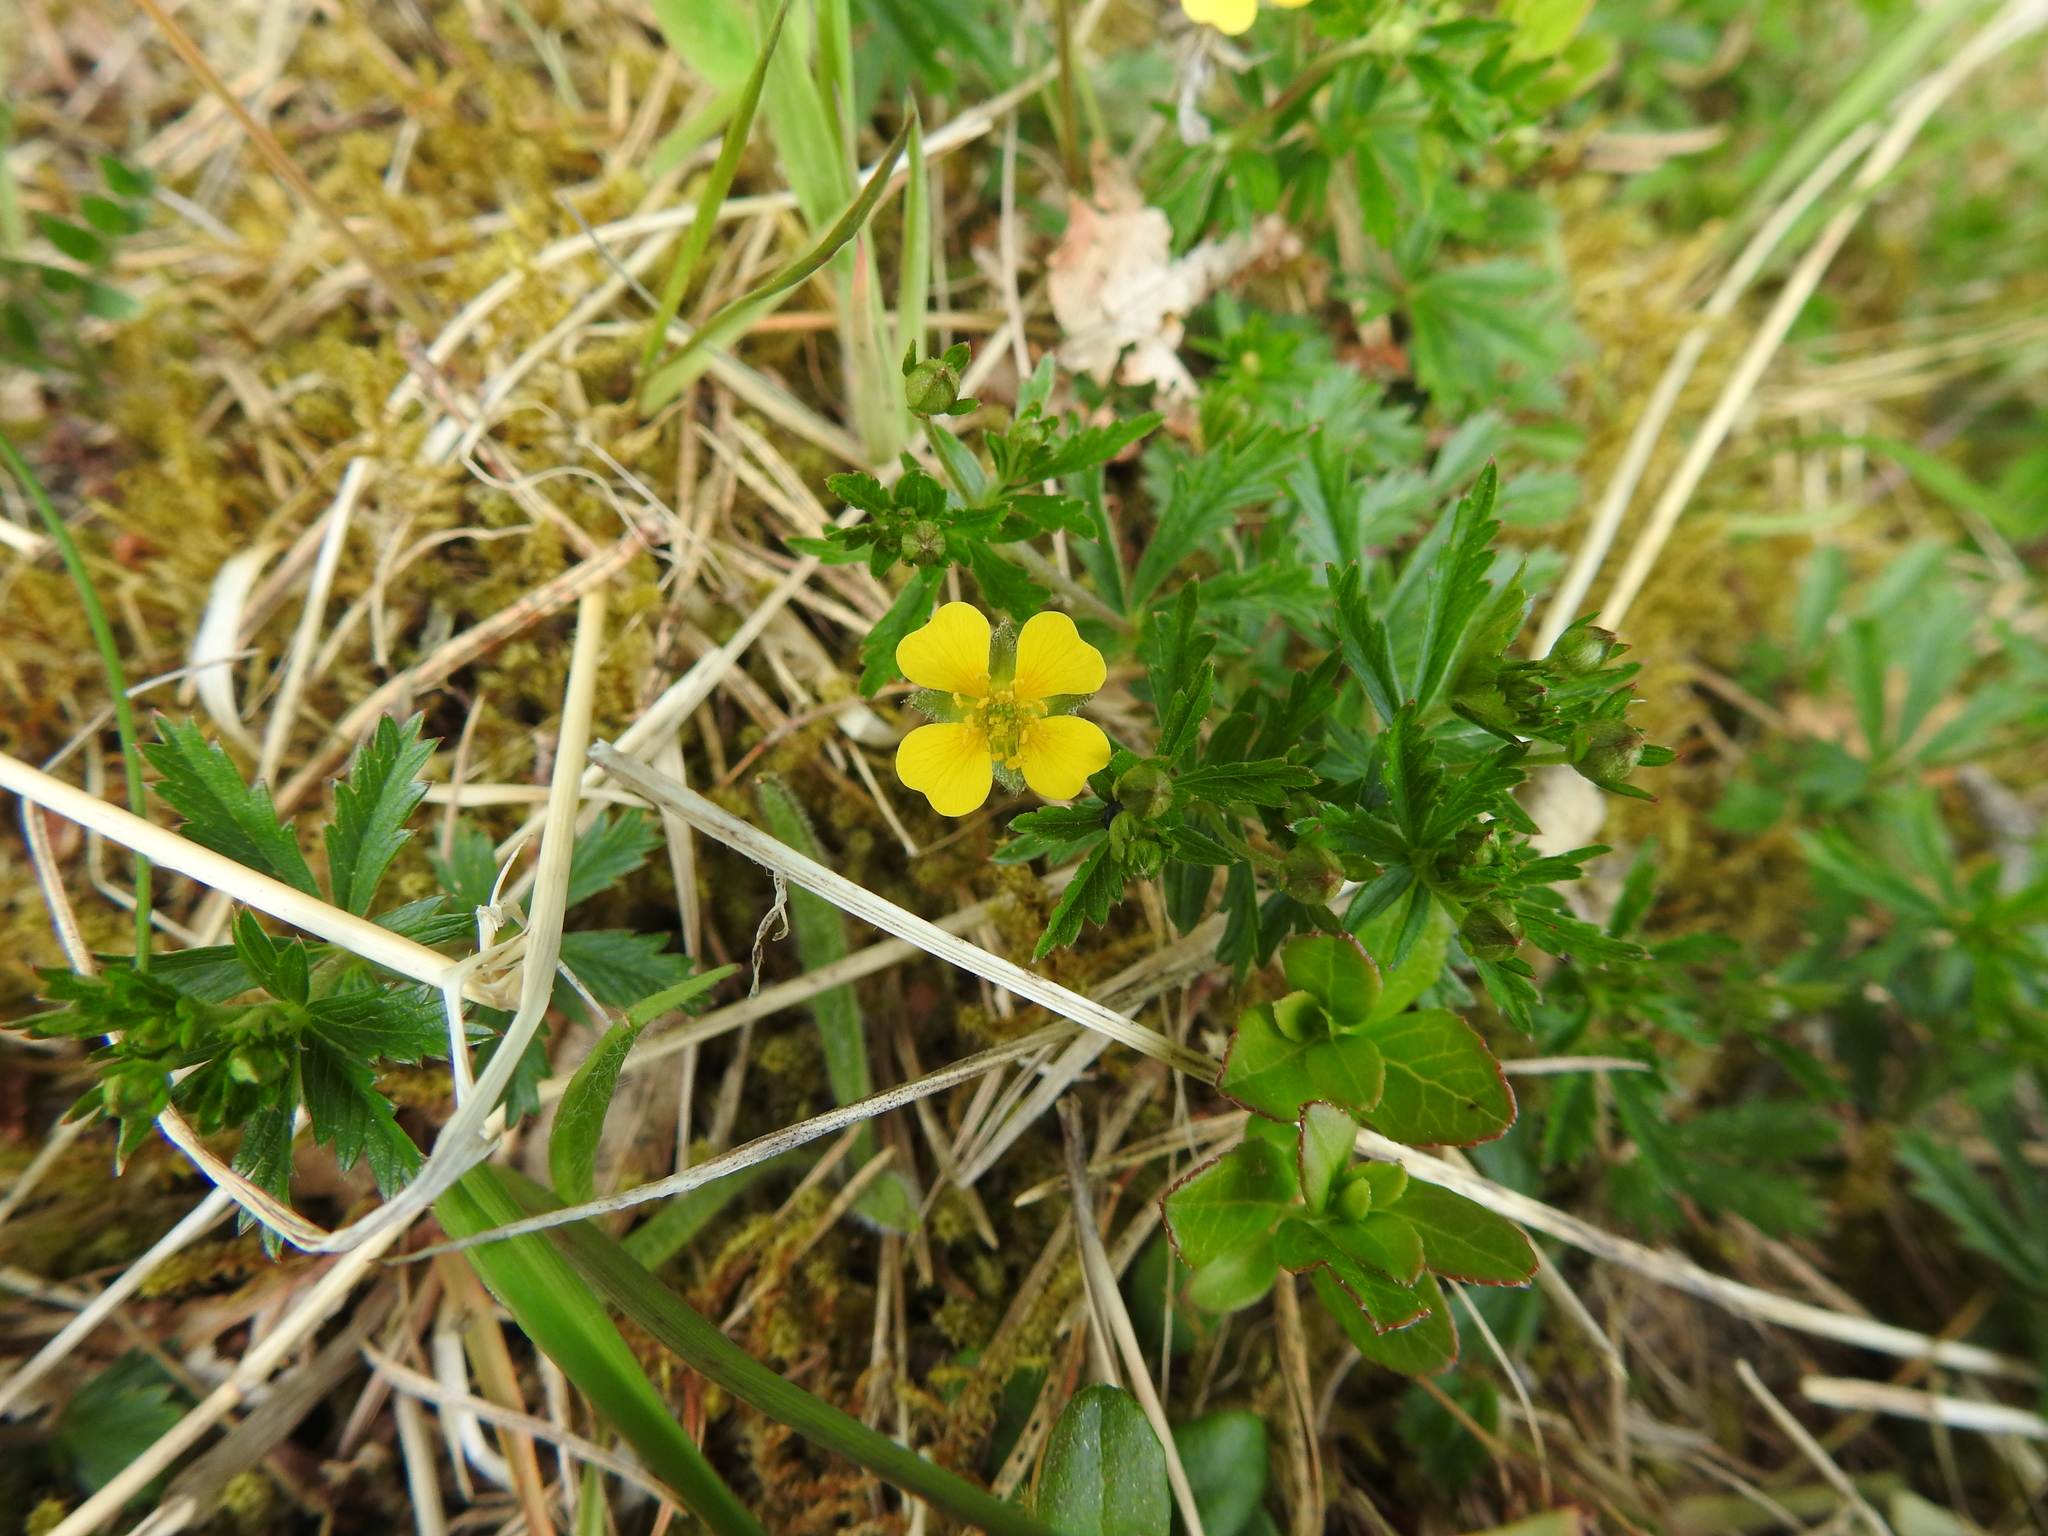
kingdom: Plantae
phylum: Tracheophyta
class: Magnoliopsida
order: Rosales
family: Rosaceae
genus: Potentilla
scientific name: Potentilla erecta
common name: Tormentil
